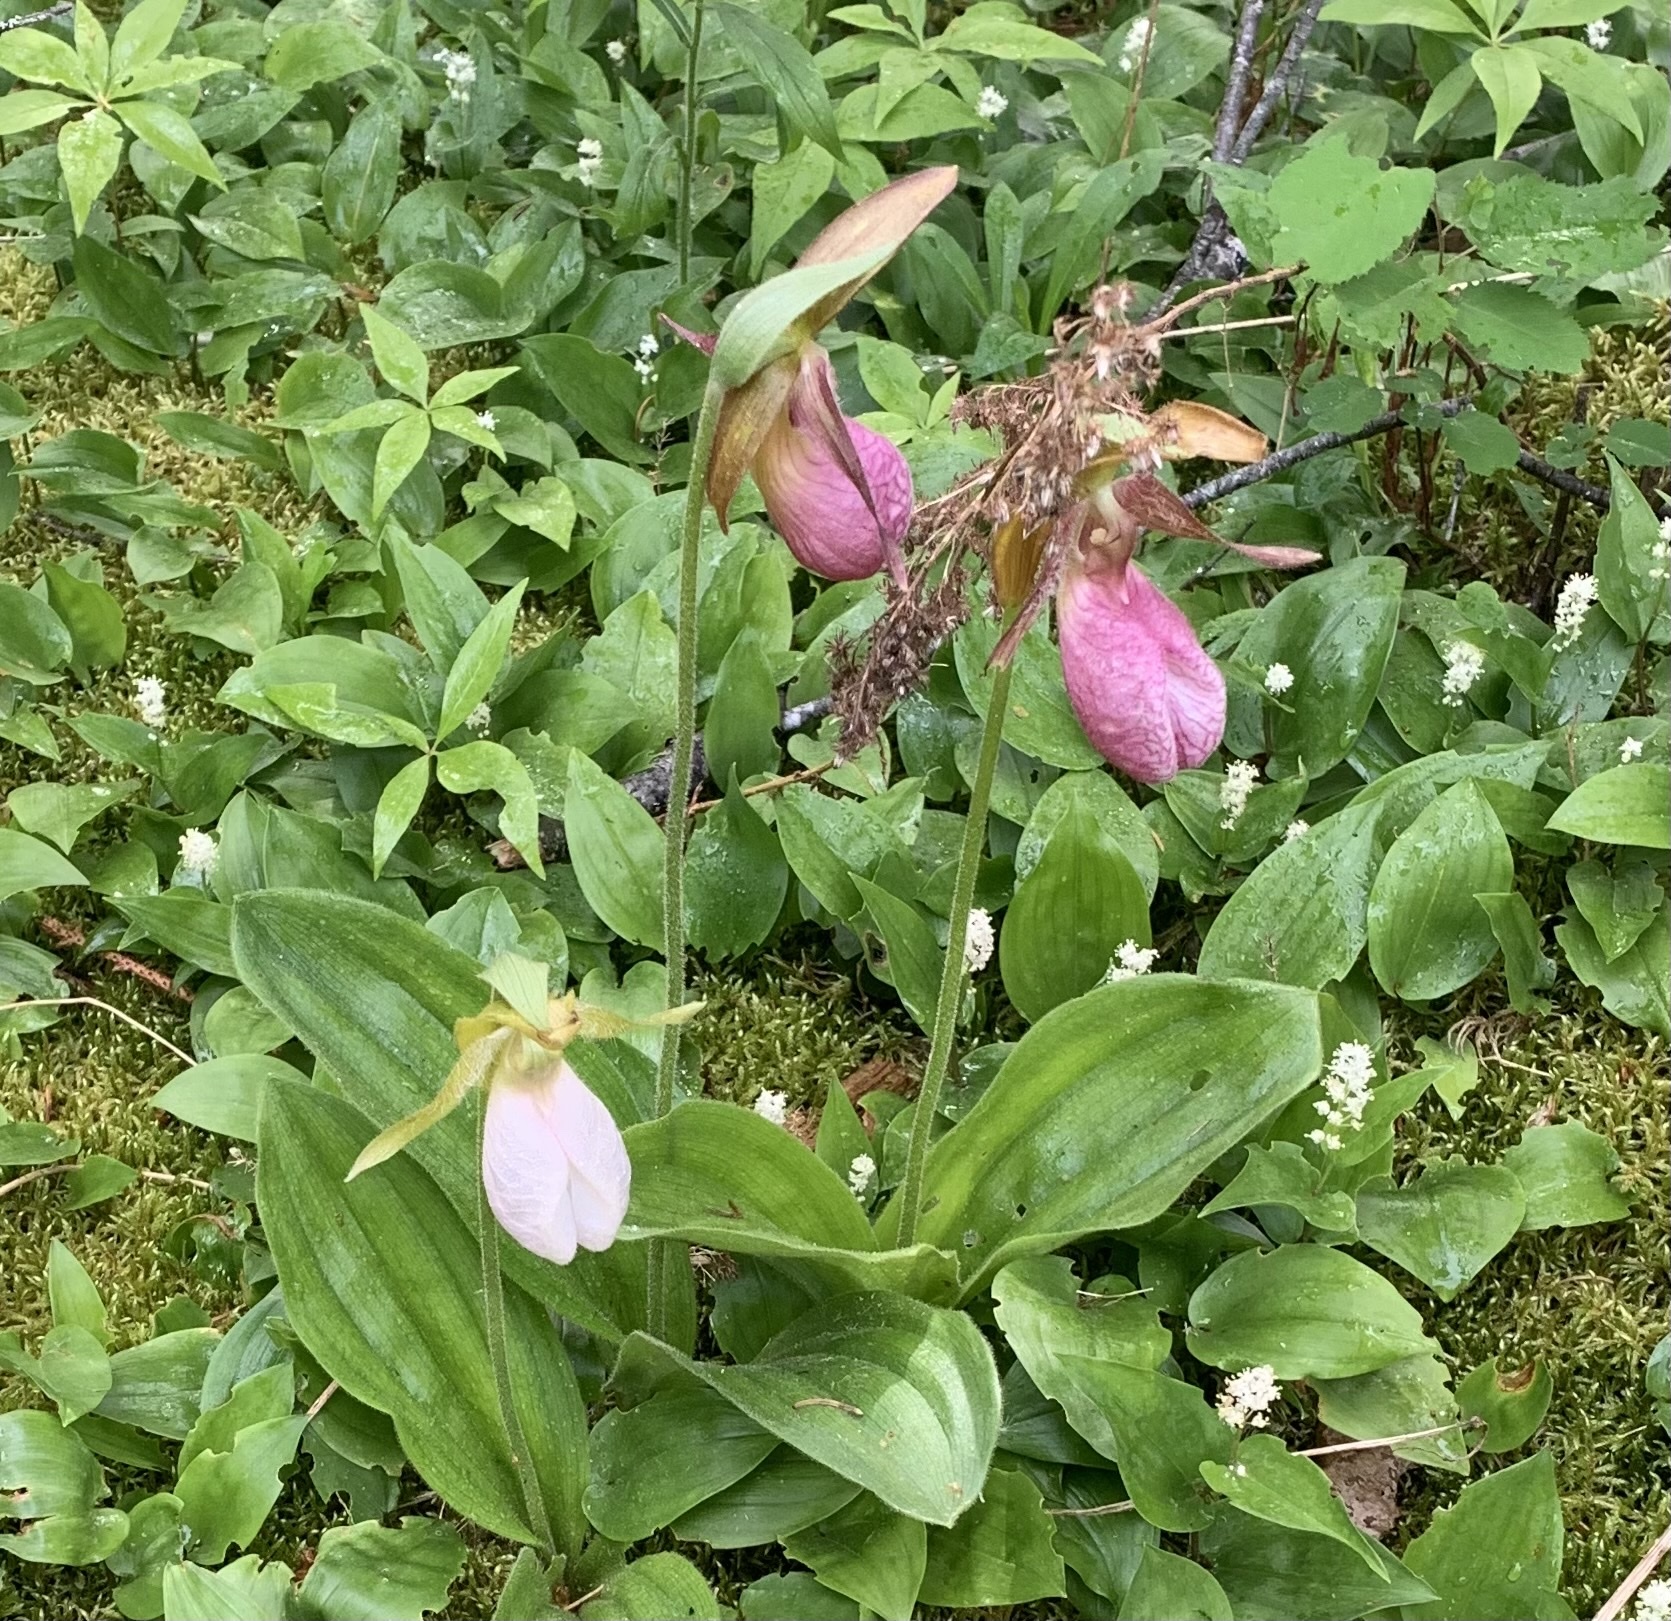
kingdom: Plantae
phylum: Tracheophyta
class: Liliopsida
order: Asparagales
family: Orchidaceae
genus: Cypripedium
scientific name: Cypripedium acaule
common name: Pink lady's-slipper
